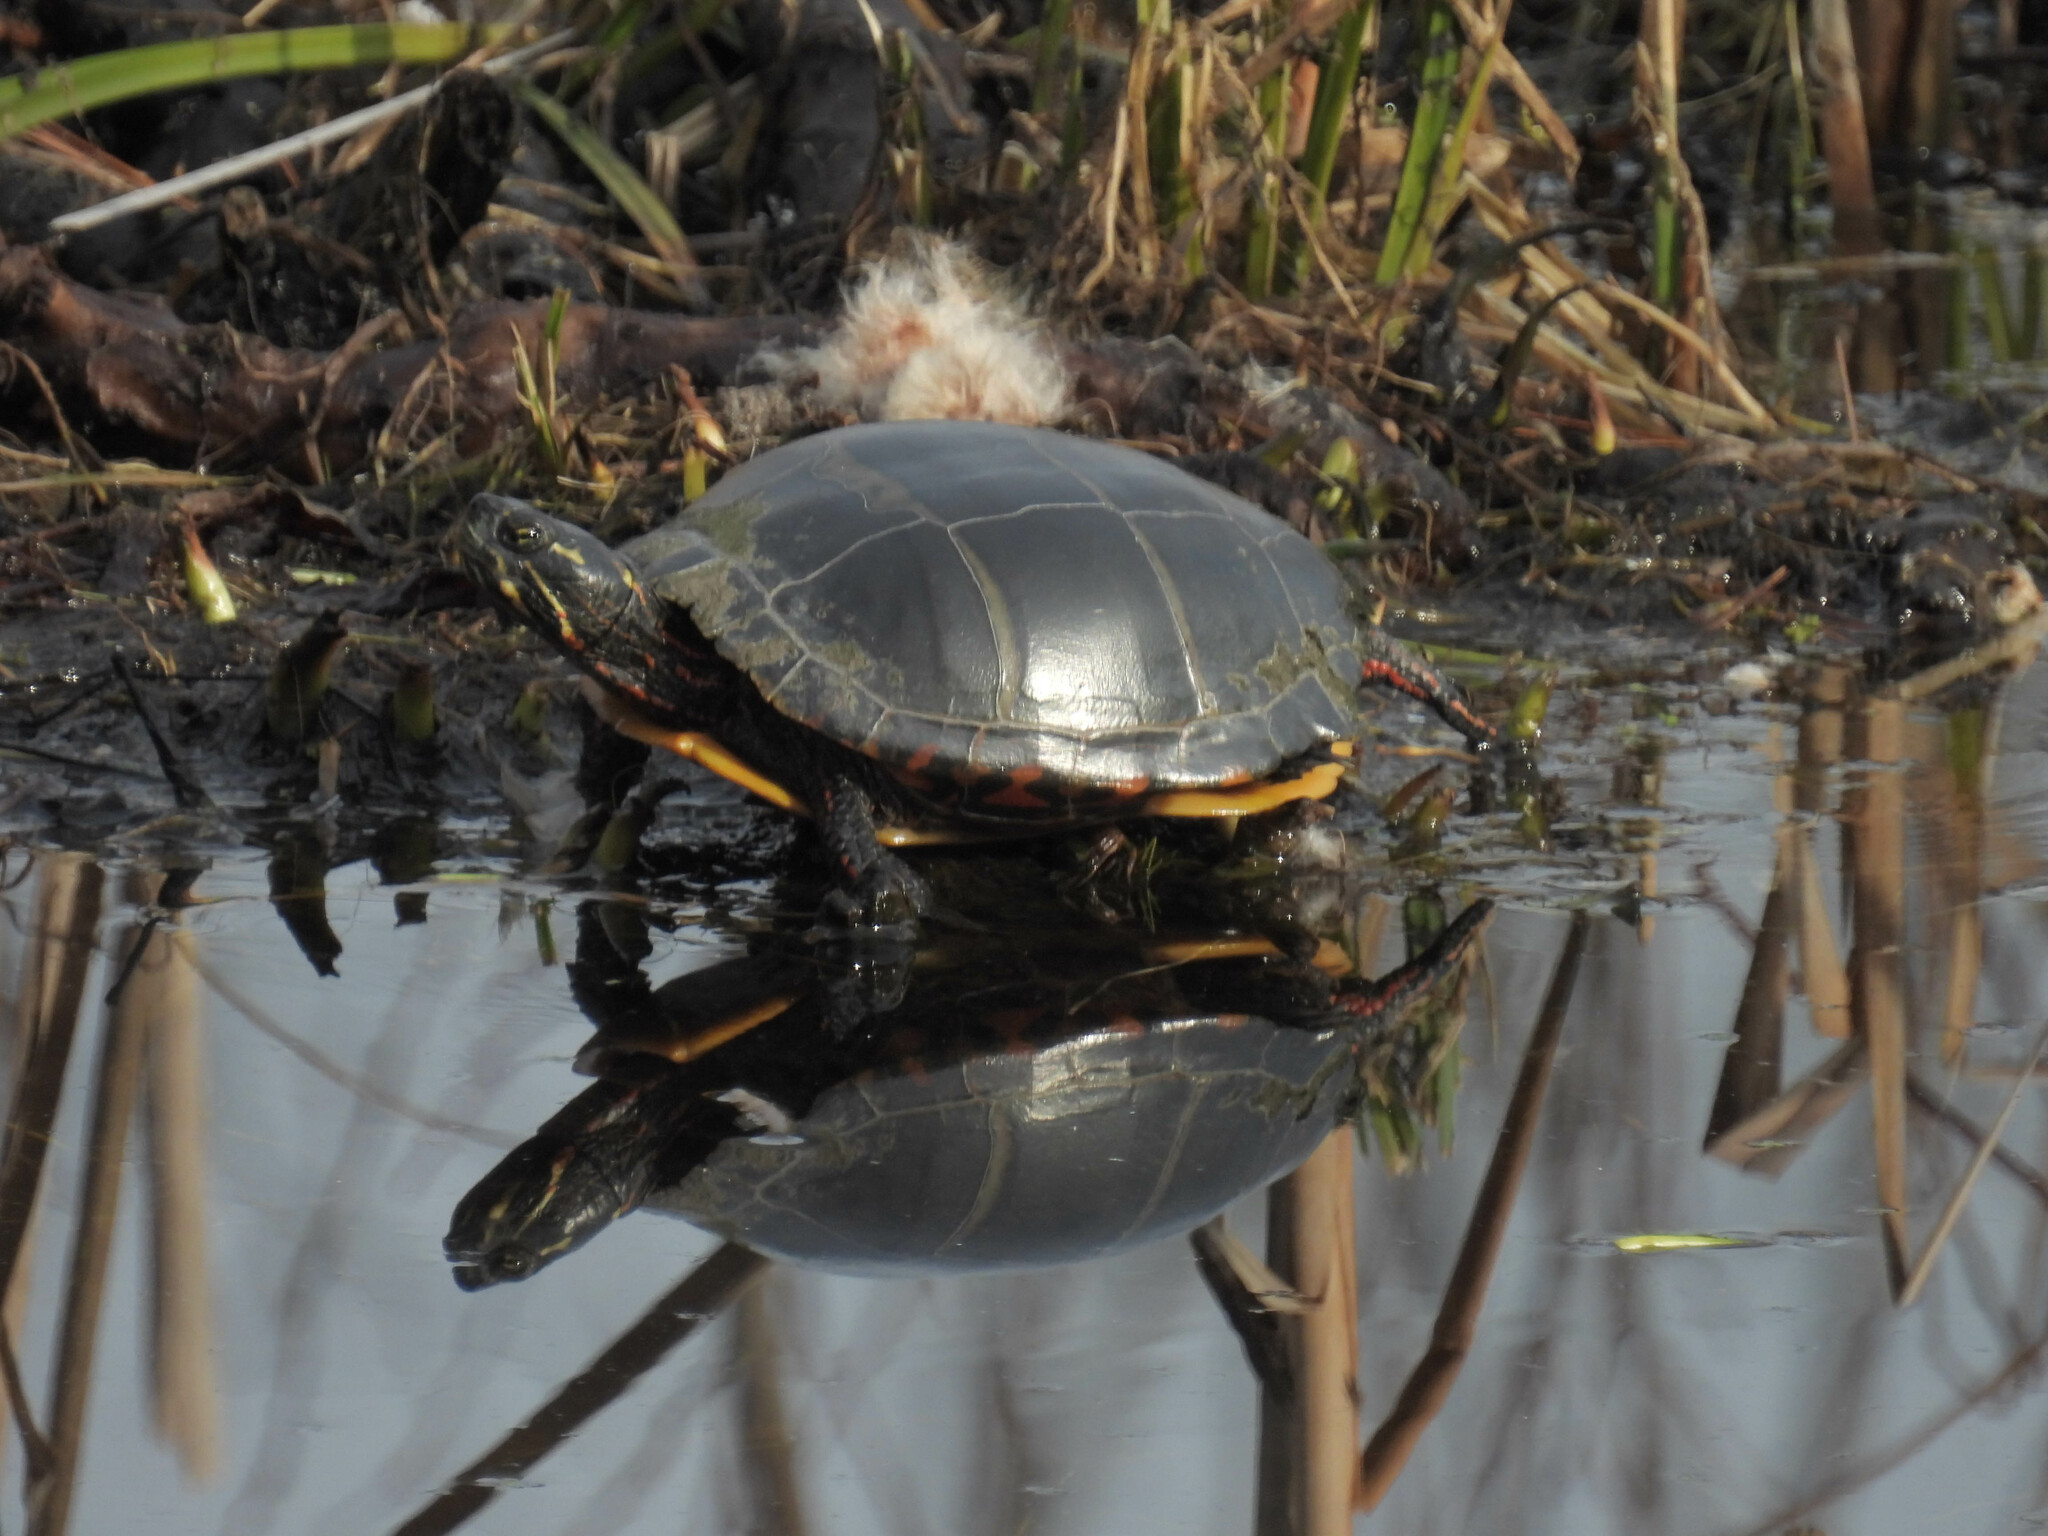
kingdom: Animalia
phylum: Chordata
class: Testudines
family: Emydidae
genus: Chrysemys
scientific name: Chrysemys picta
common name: Painted turtle
